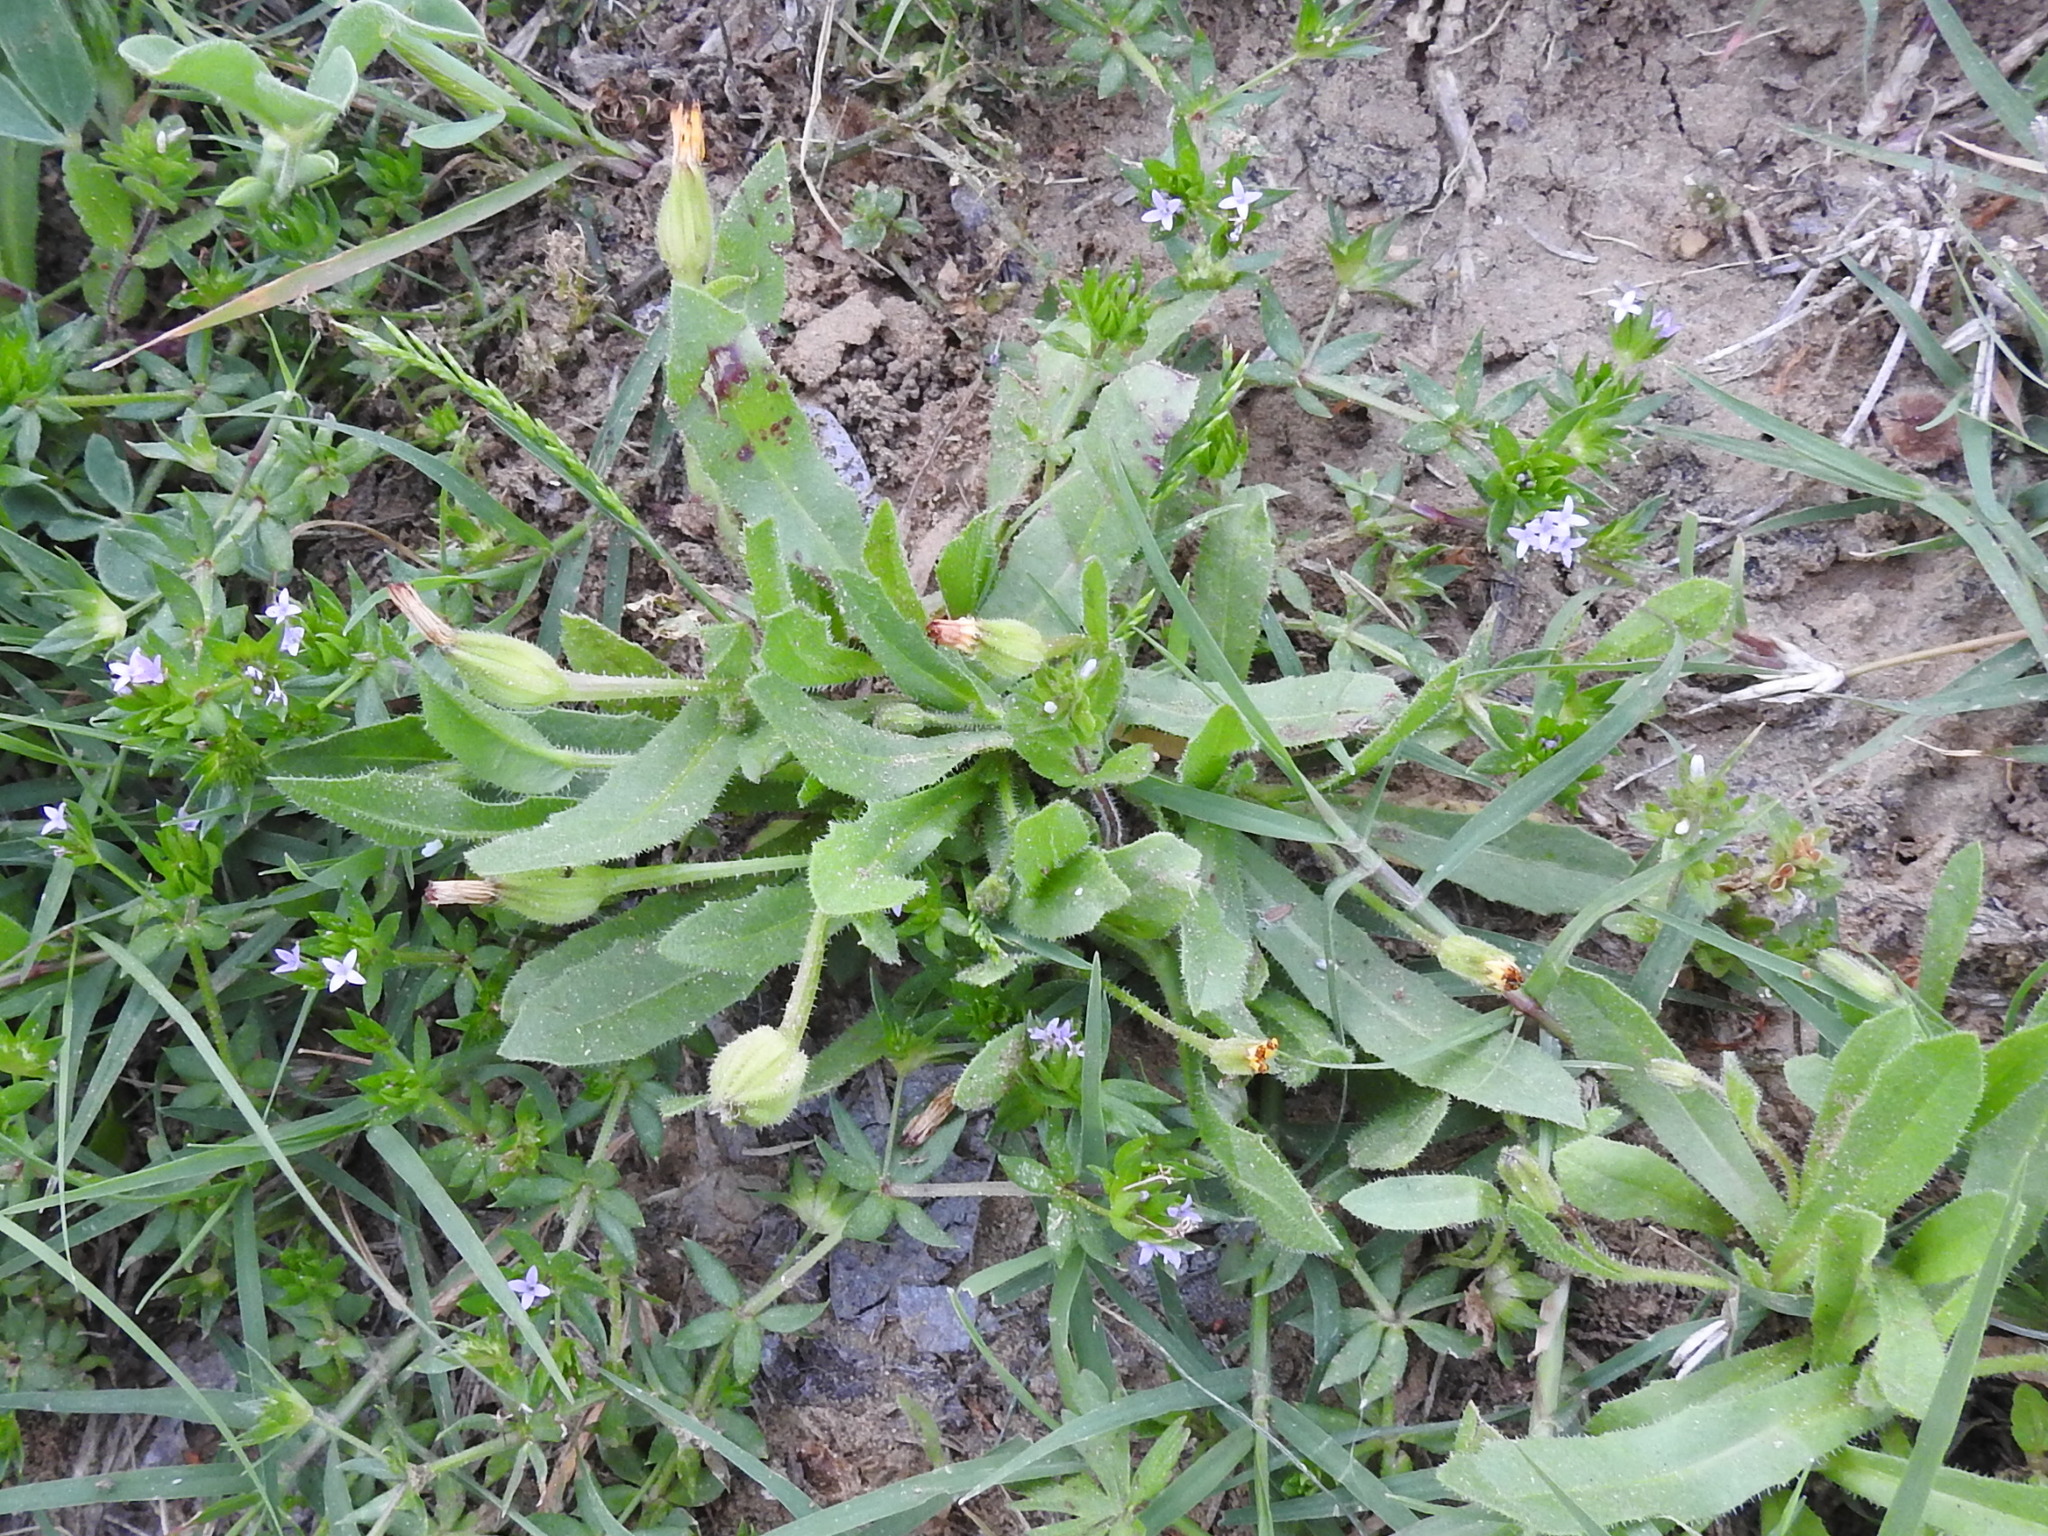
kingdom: Plantae
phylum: Tracheophyta
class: Magnoliopsida
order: Asterales
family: Asteraceae
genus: Hedypnois
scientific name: Hedypnois rhagadioloides
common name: Cretan weed
